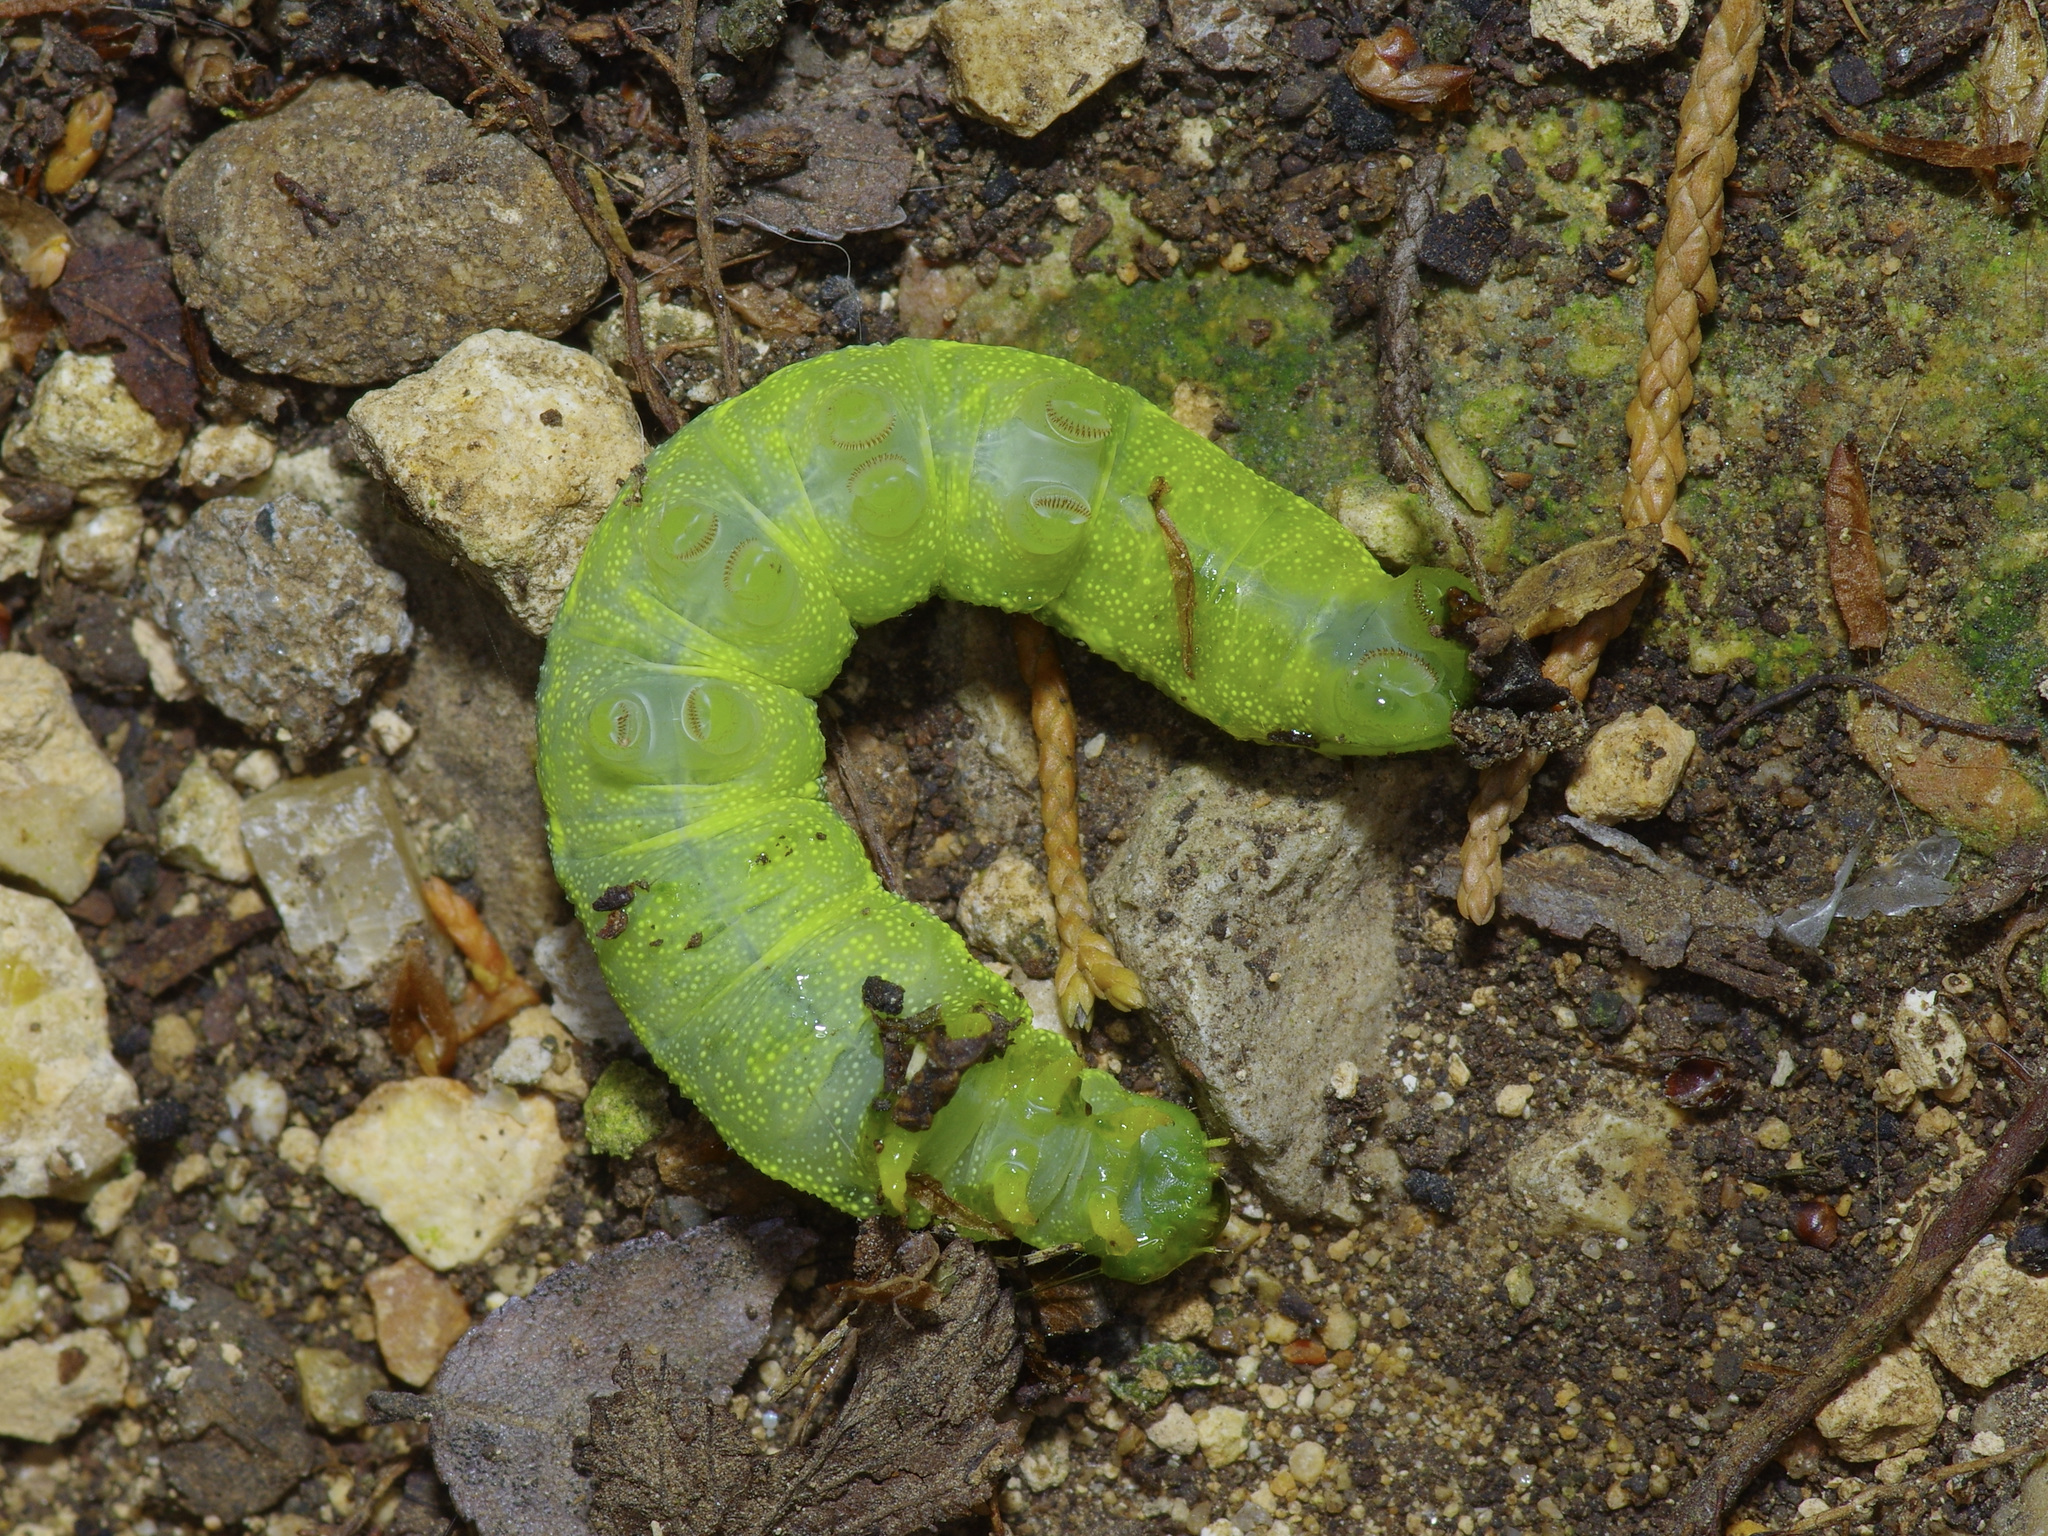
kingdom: Animalia
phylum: Arthropoda
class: Insecta
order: Lepidoptera
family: Sphingidae
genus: Deidamia
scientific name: Deidamia inscriptum
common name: Lettered sphinx
